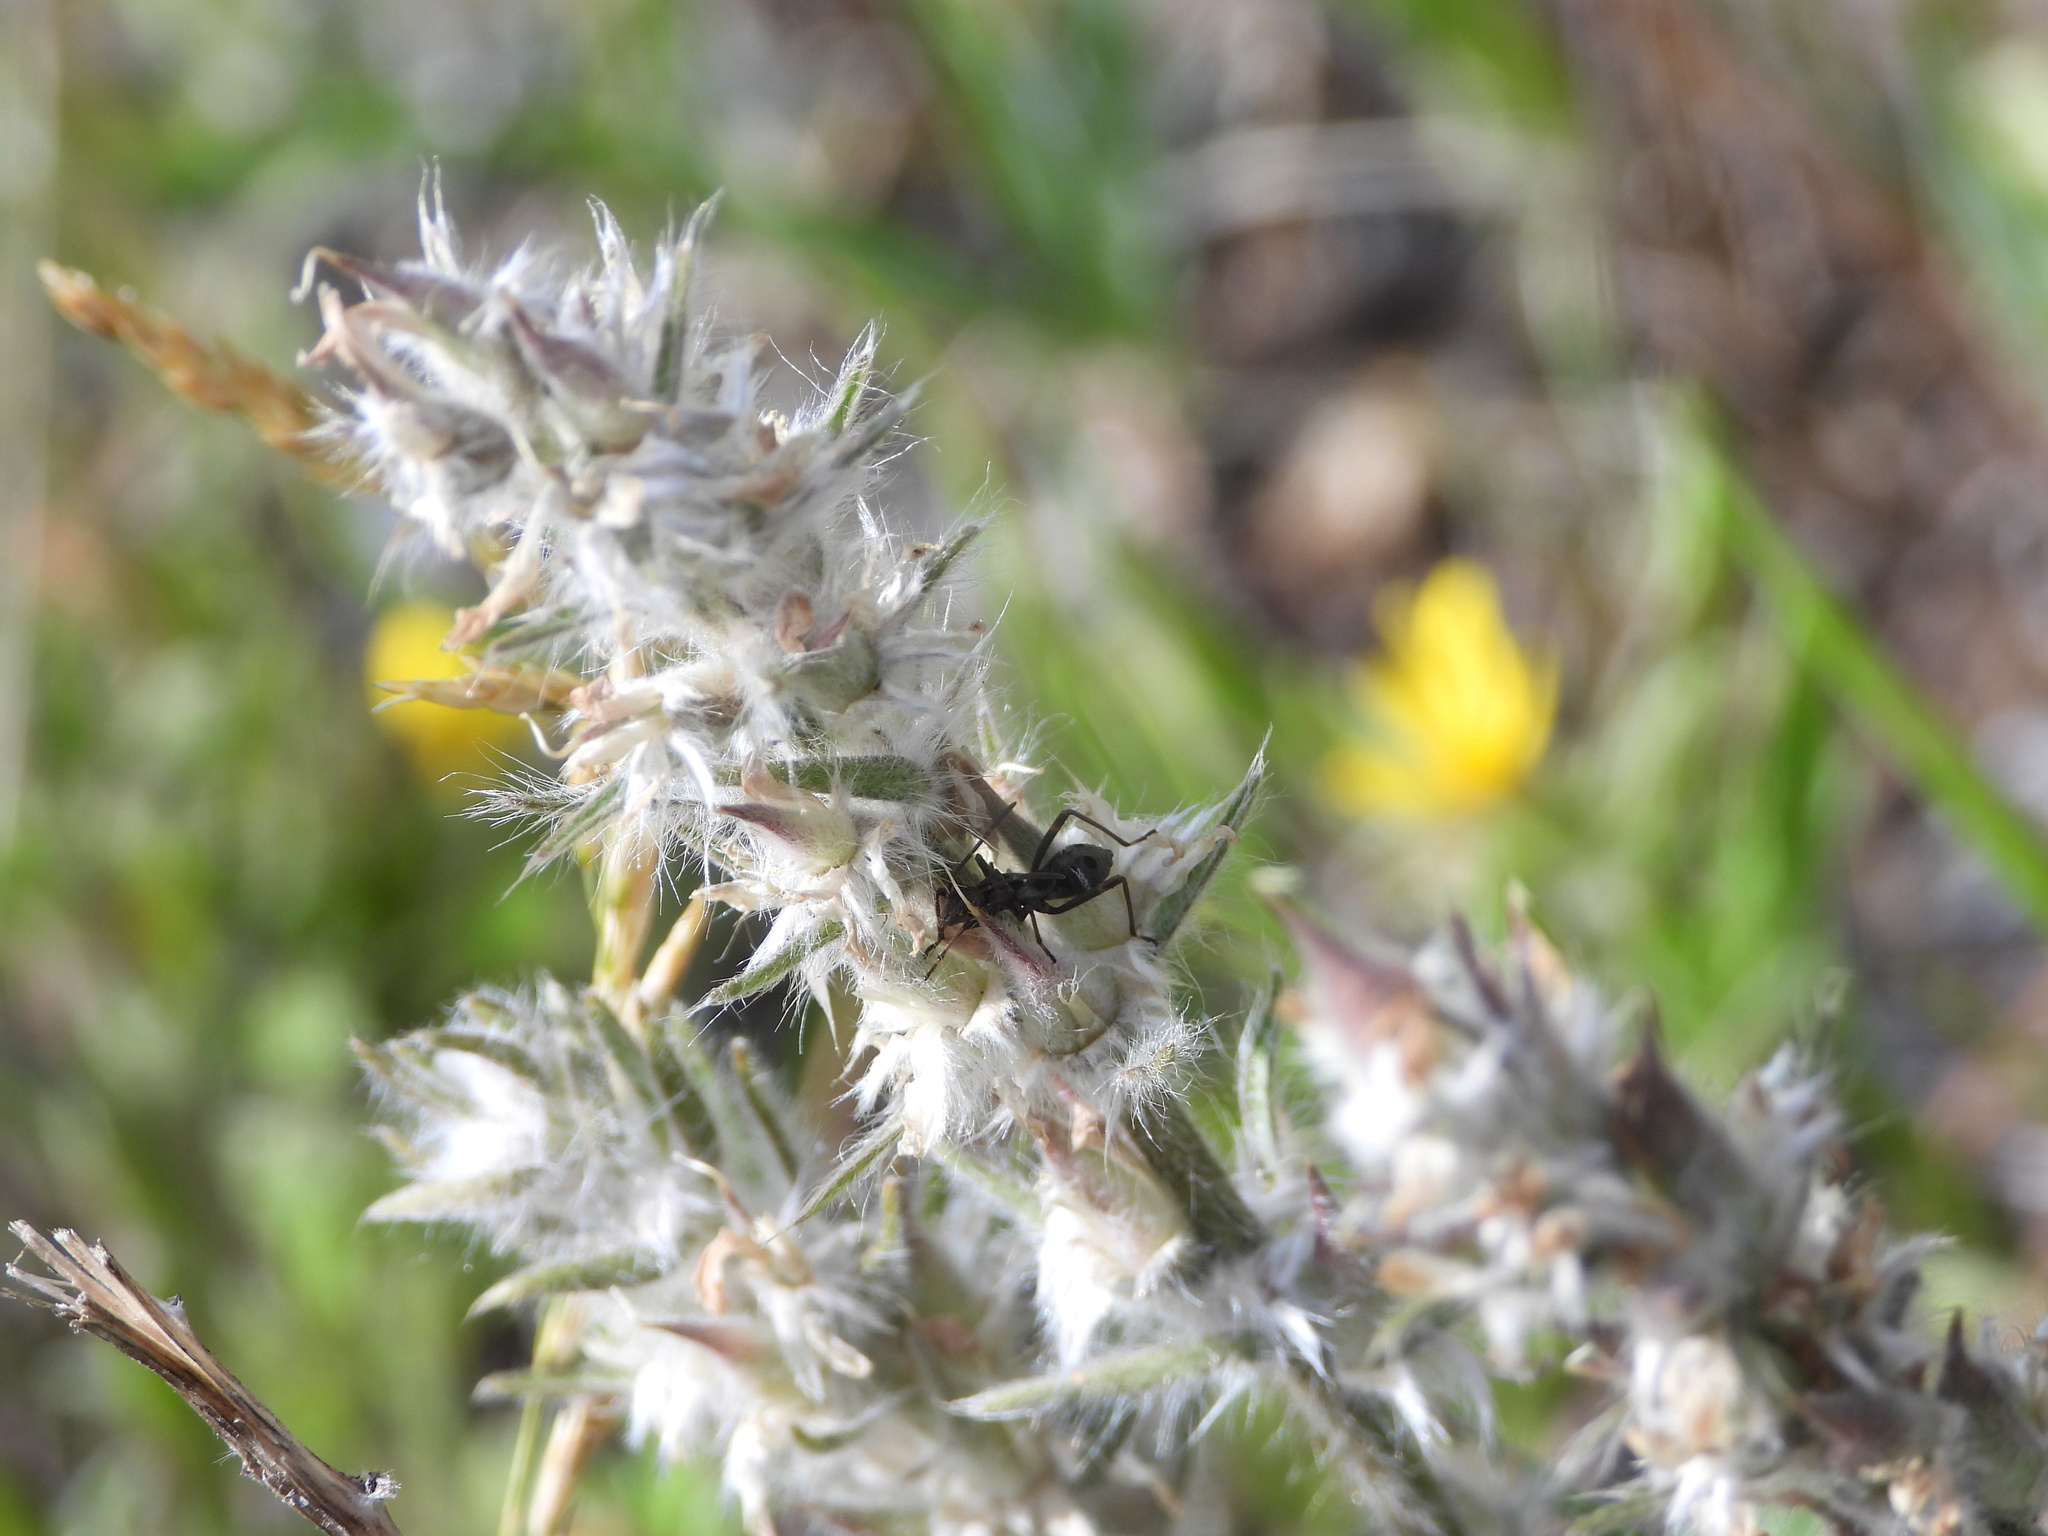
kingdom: Plantae
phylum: Tracheophyta
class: Magnoliopsida
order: Fabales
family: Fabaceae
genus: Oxytropis
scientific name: Oxytropis splendens
